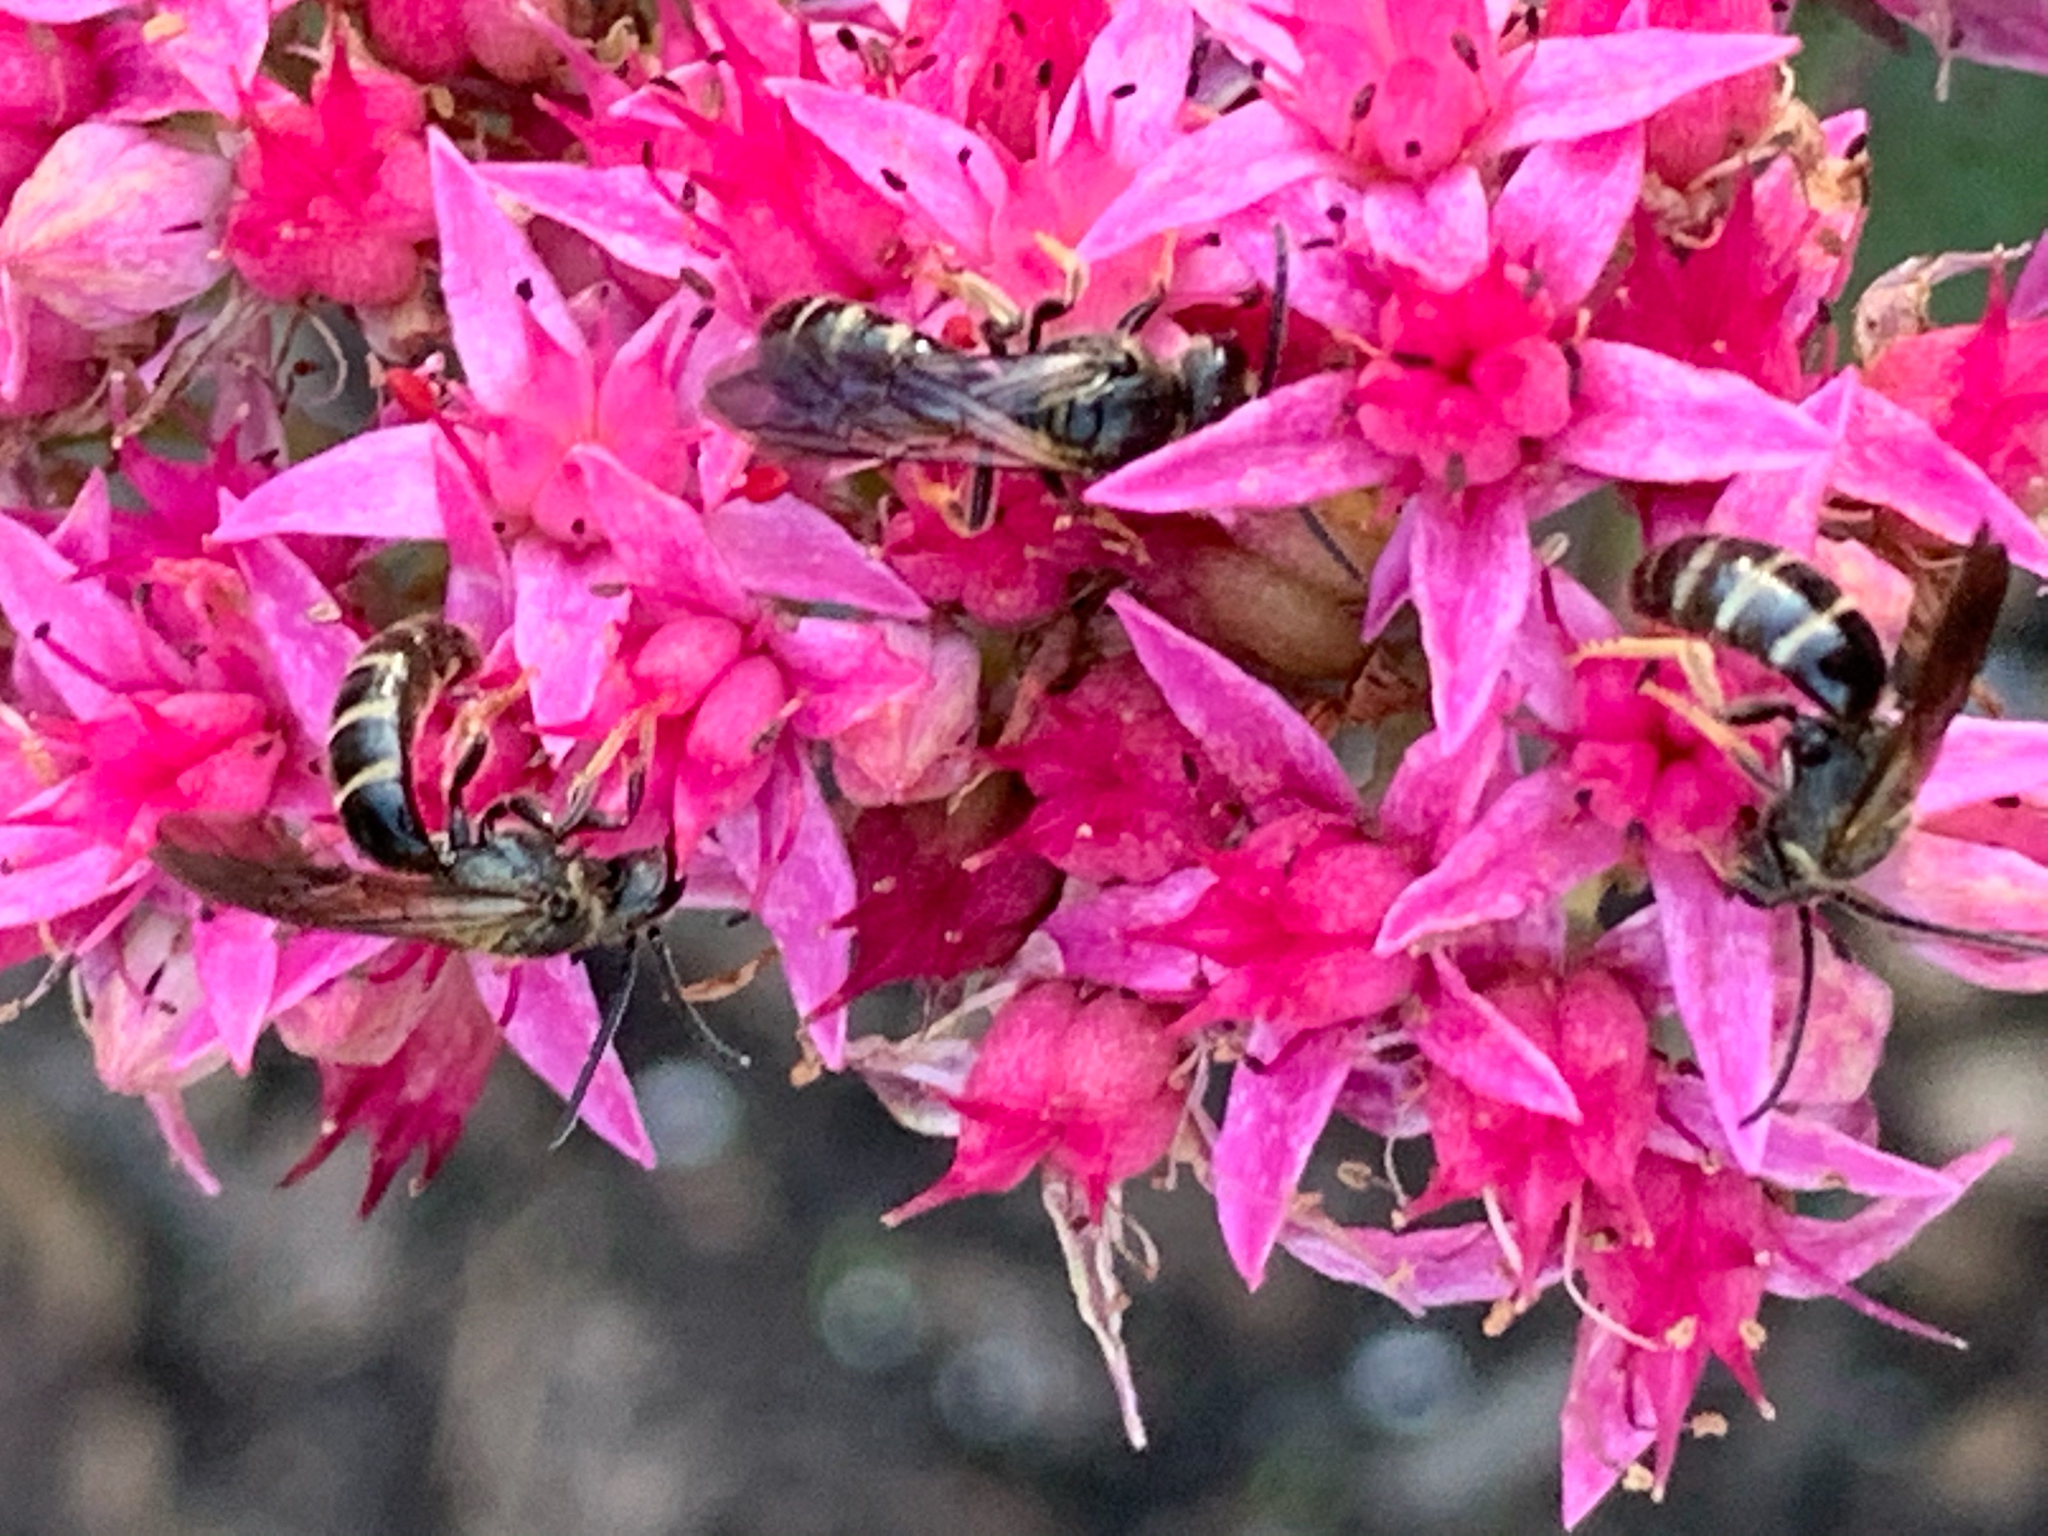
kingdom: Animalia
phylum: Arthropoda
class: Insecta
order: Hymenoptera
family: Halictidae
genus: Lasioglossum
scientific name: Lasioglossum fuscipenne
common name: Brown-winged sweat bee
